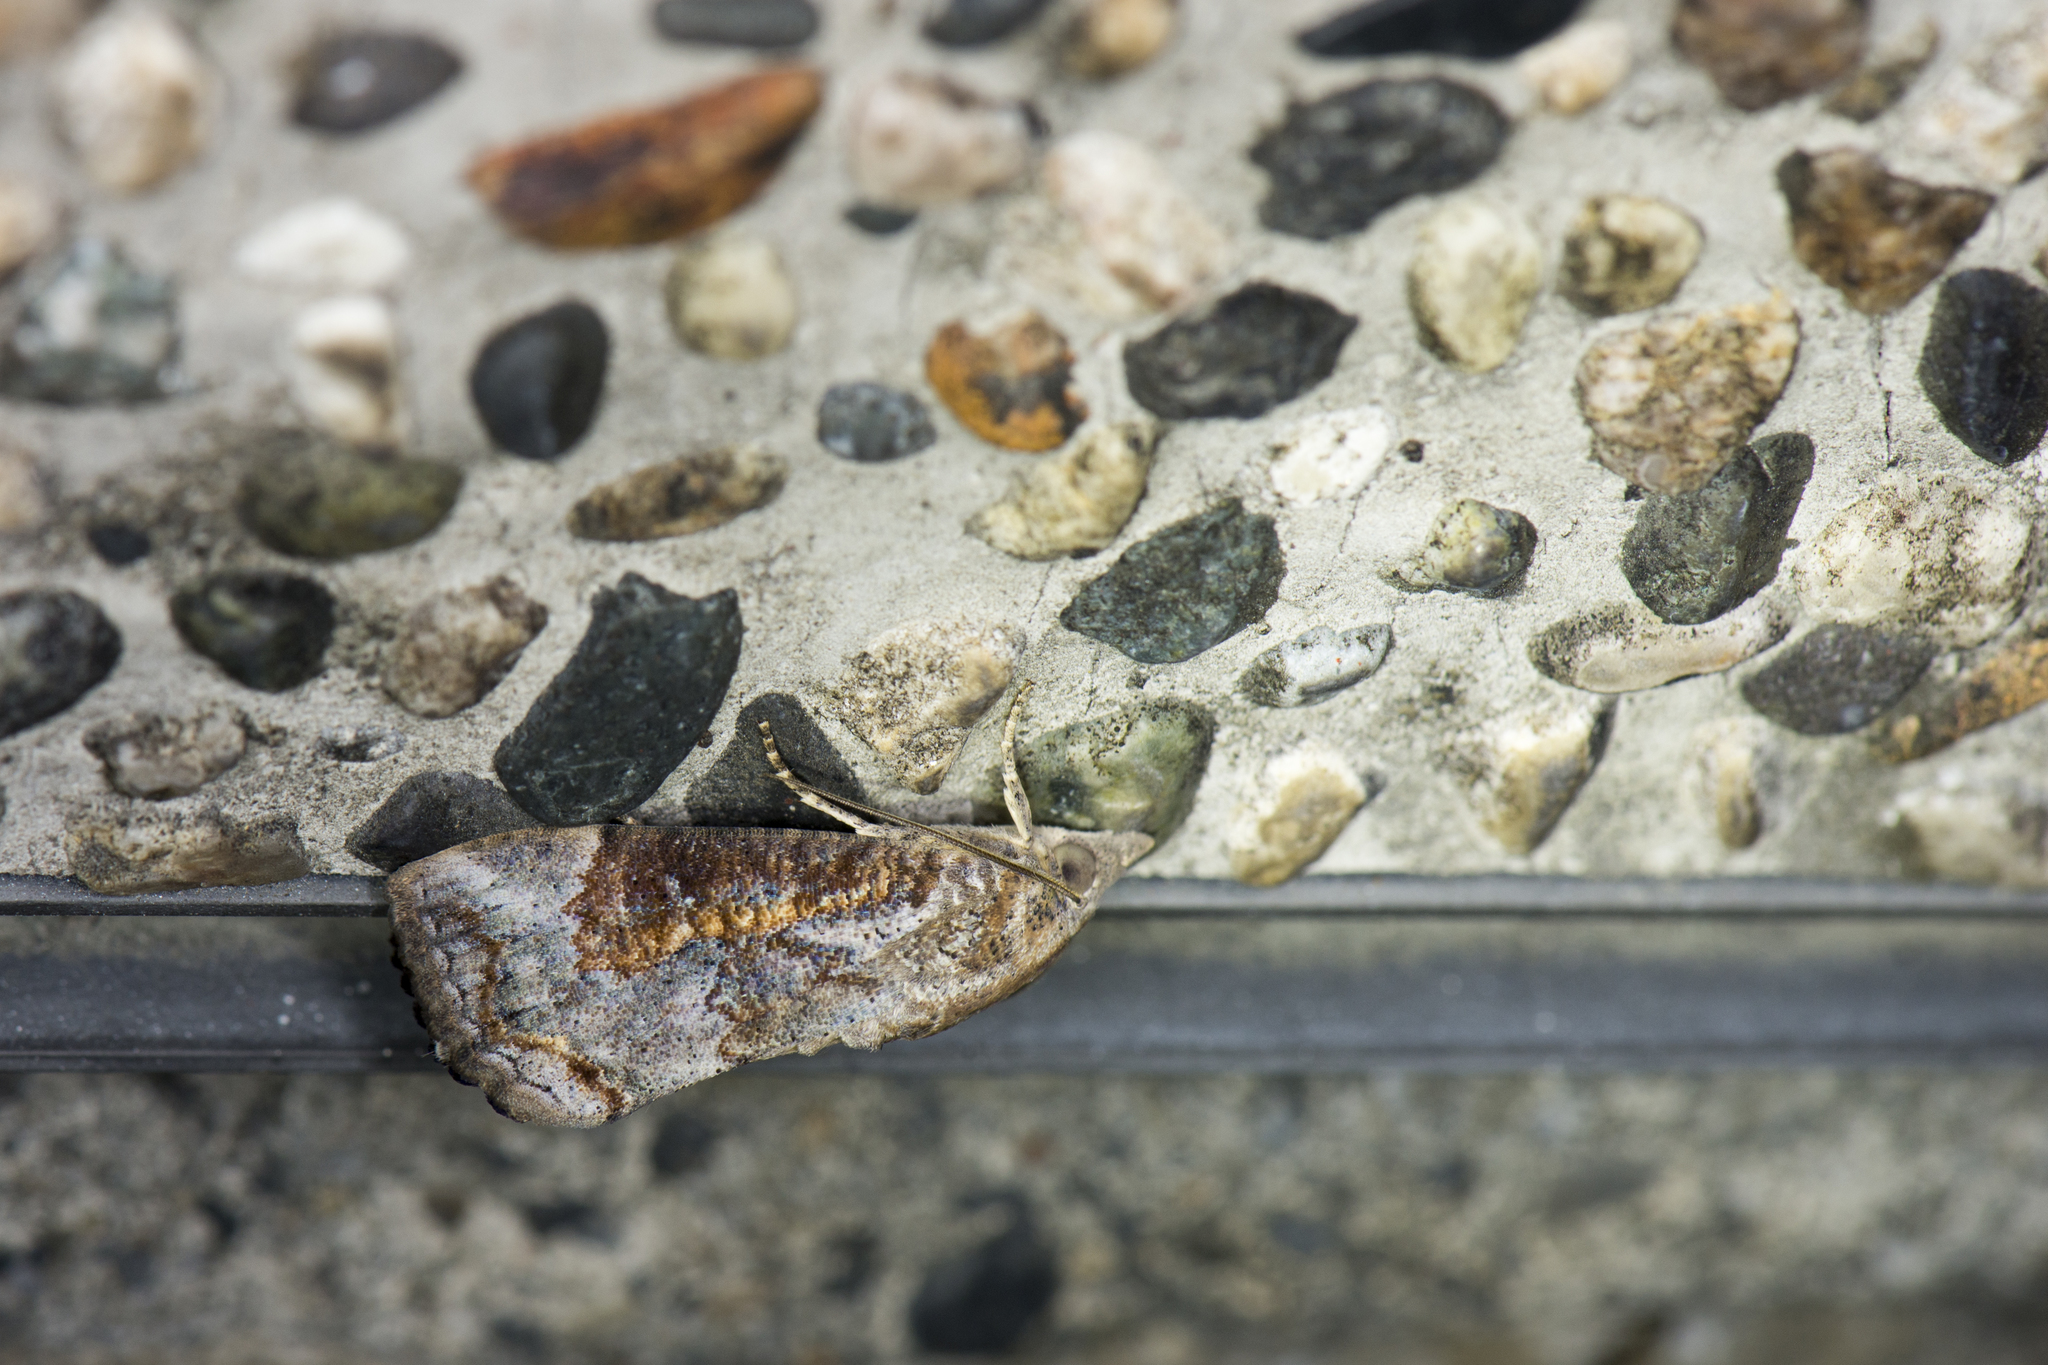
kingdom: Animalia
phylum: Arthropoda
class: Insecta
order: Lepidoptera
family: Erebidae
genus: Hypocala
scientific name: Hypocala subsatura
